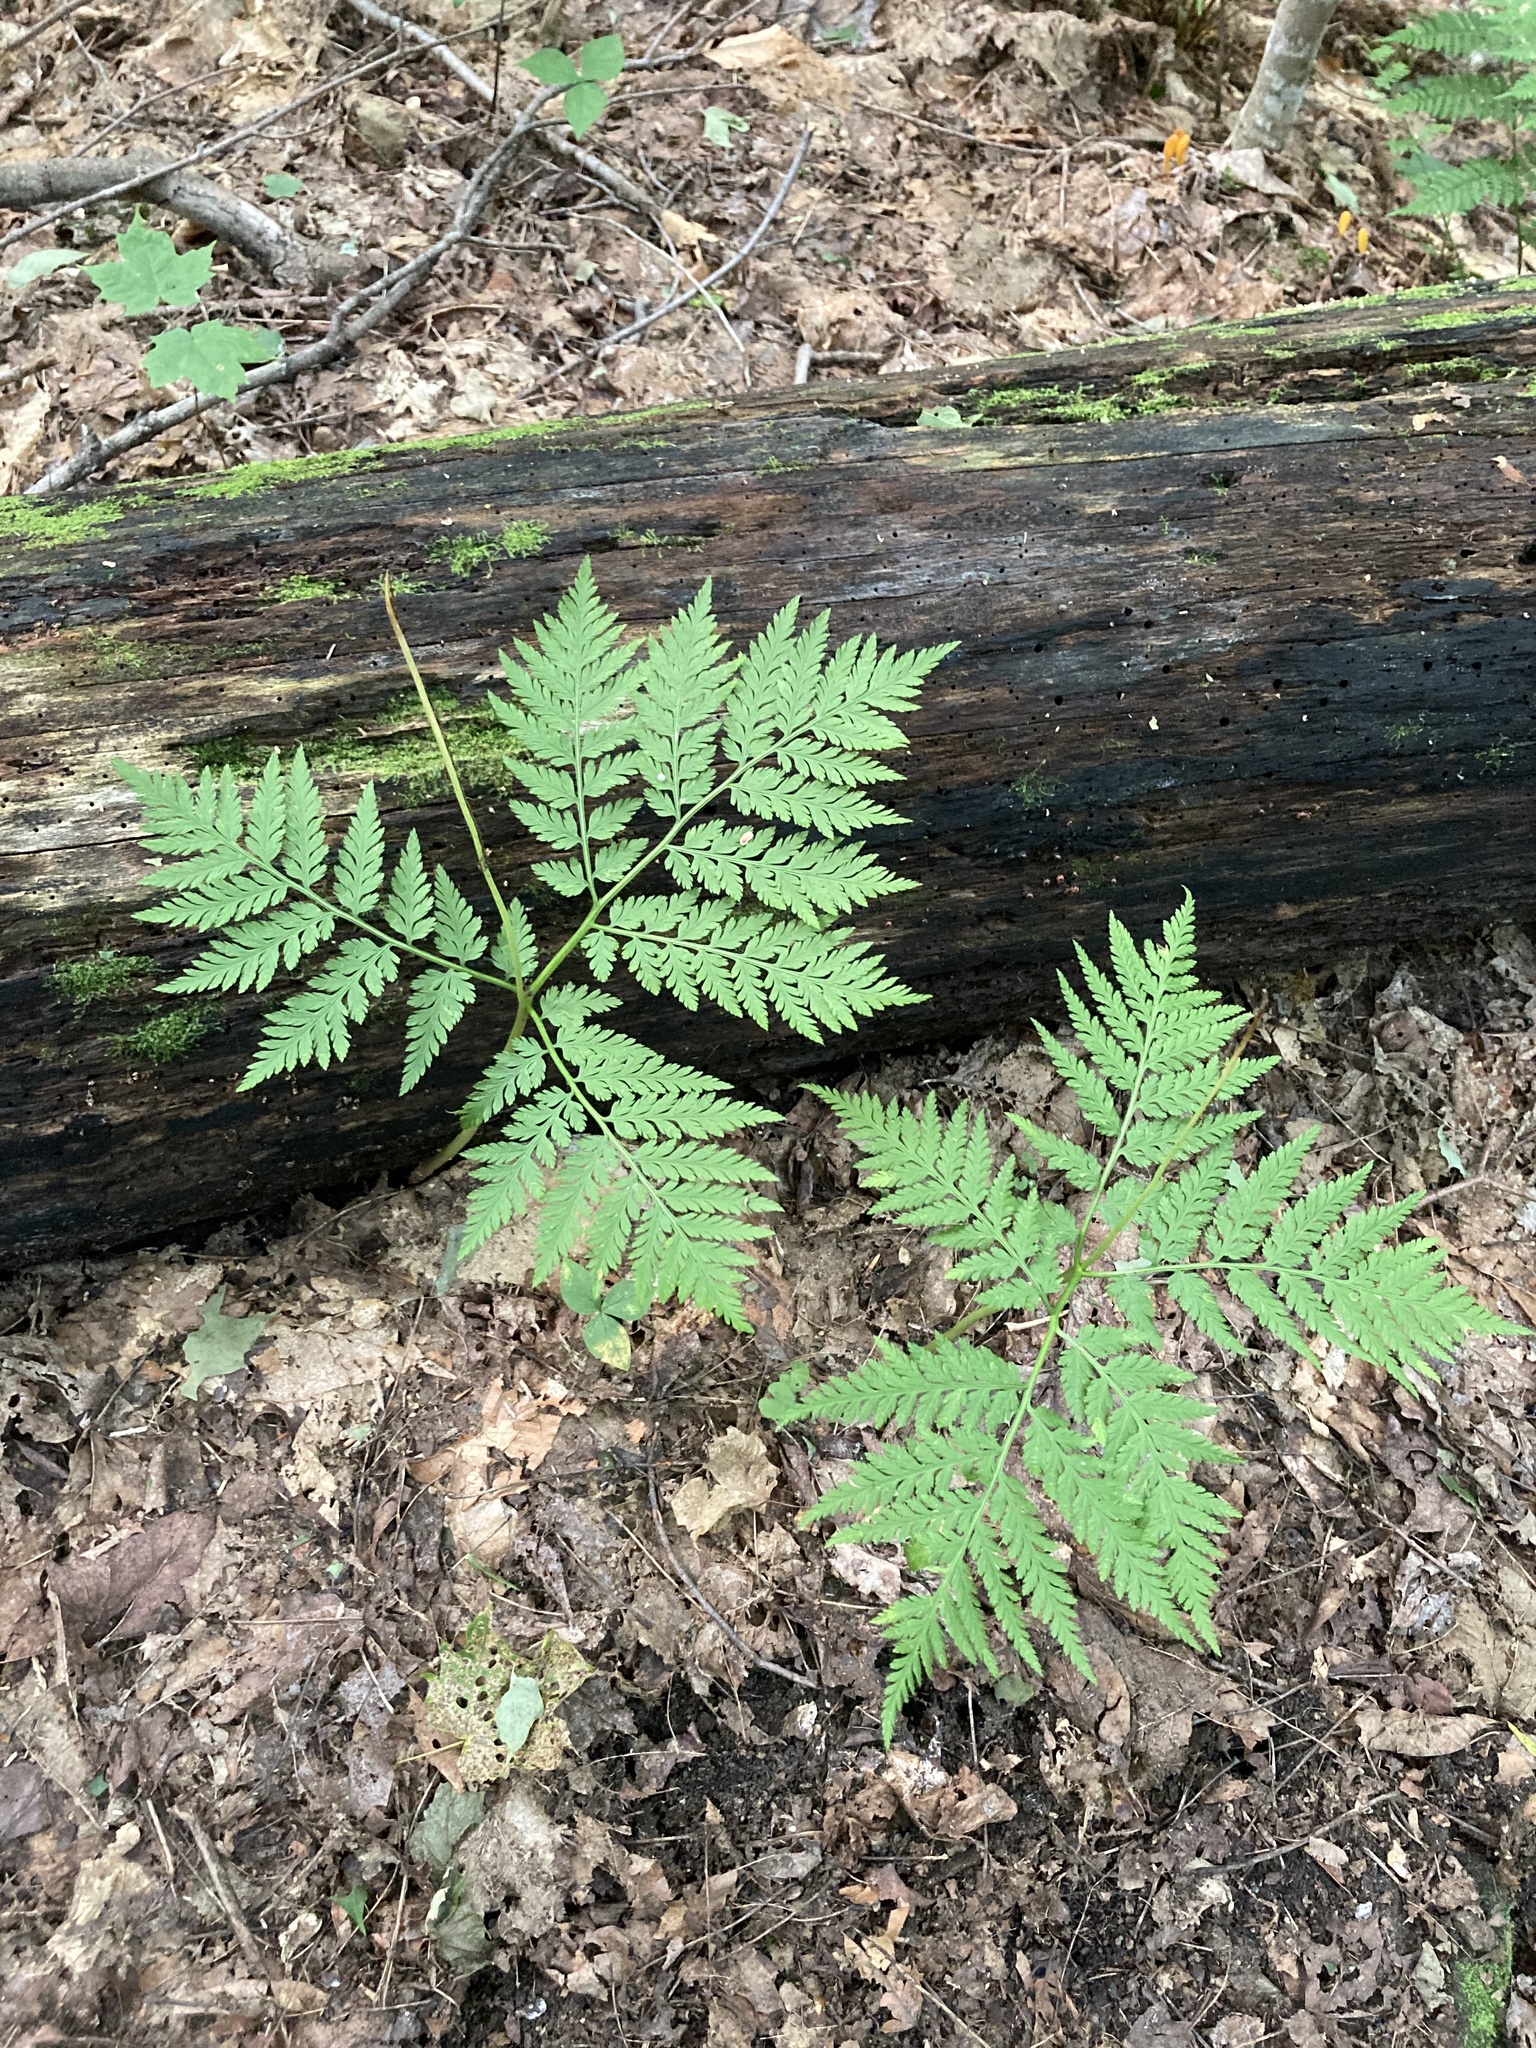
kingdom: Plantae
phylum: Tracheophyta
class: Polypodiopsida
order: Ophioglossales
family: Ophioglossaceae
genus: Botrypus
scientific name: Botrypus virginianus
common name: Common grapefern
